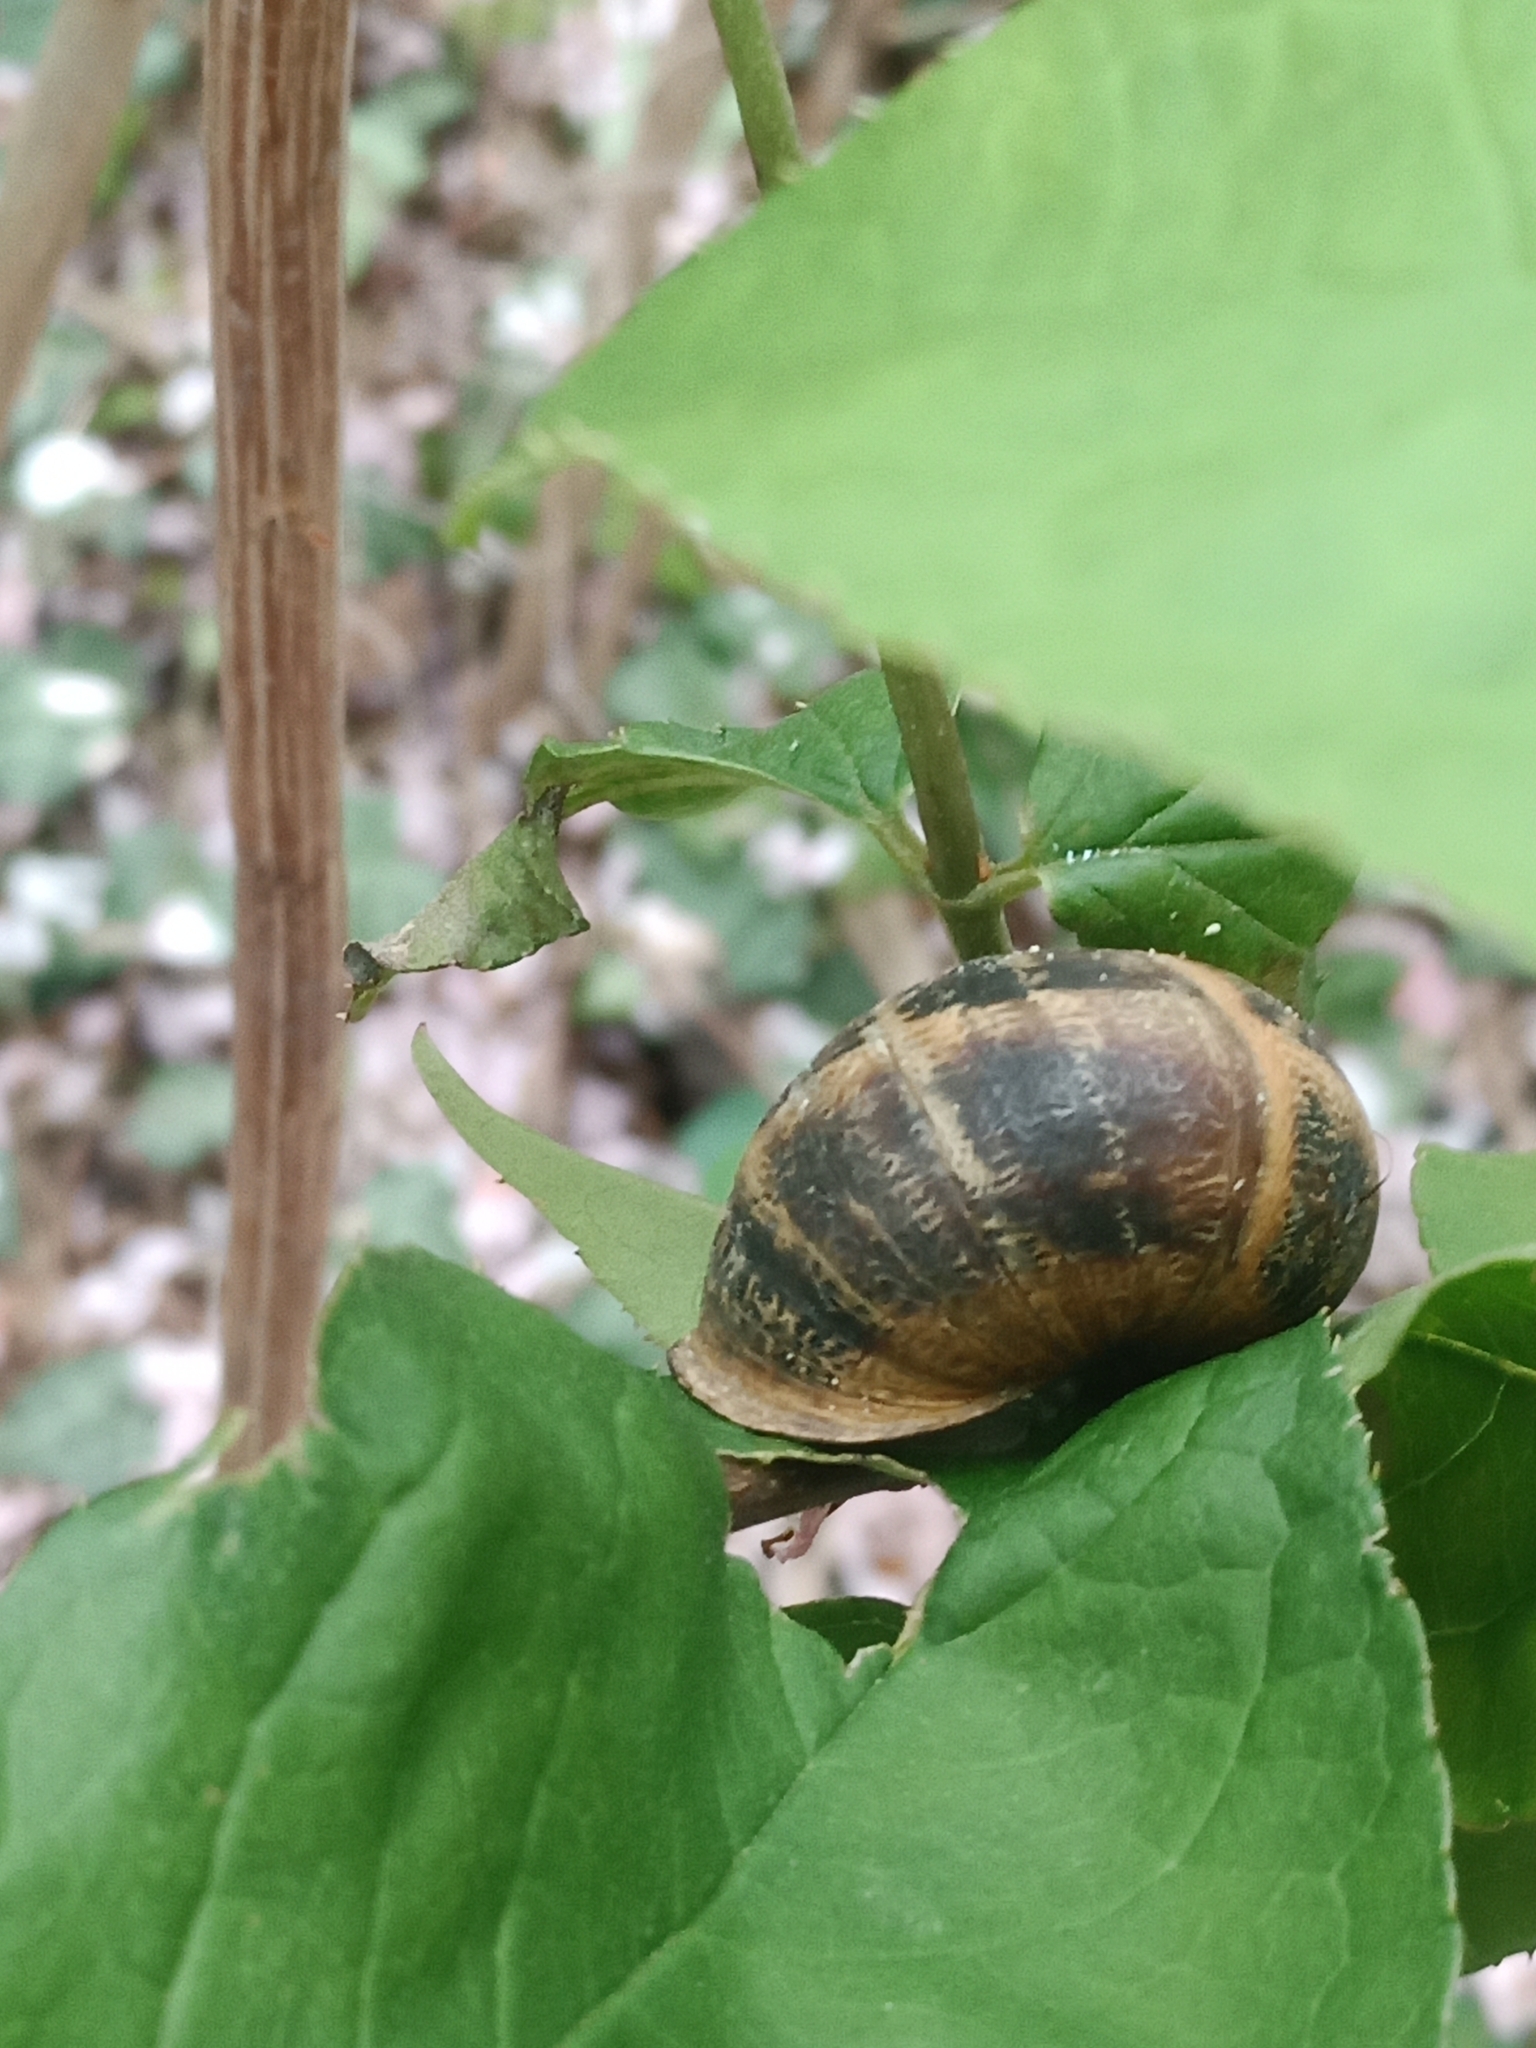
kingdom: Animalia
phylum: Mollusca
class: Gastropoda
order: Stylommatophora
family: Helicidae
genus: Cornu
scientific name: Cornu aspersum
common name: Brown garden snail
